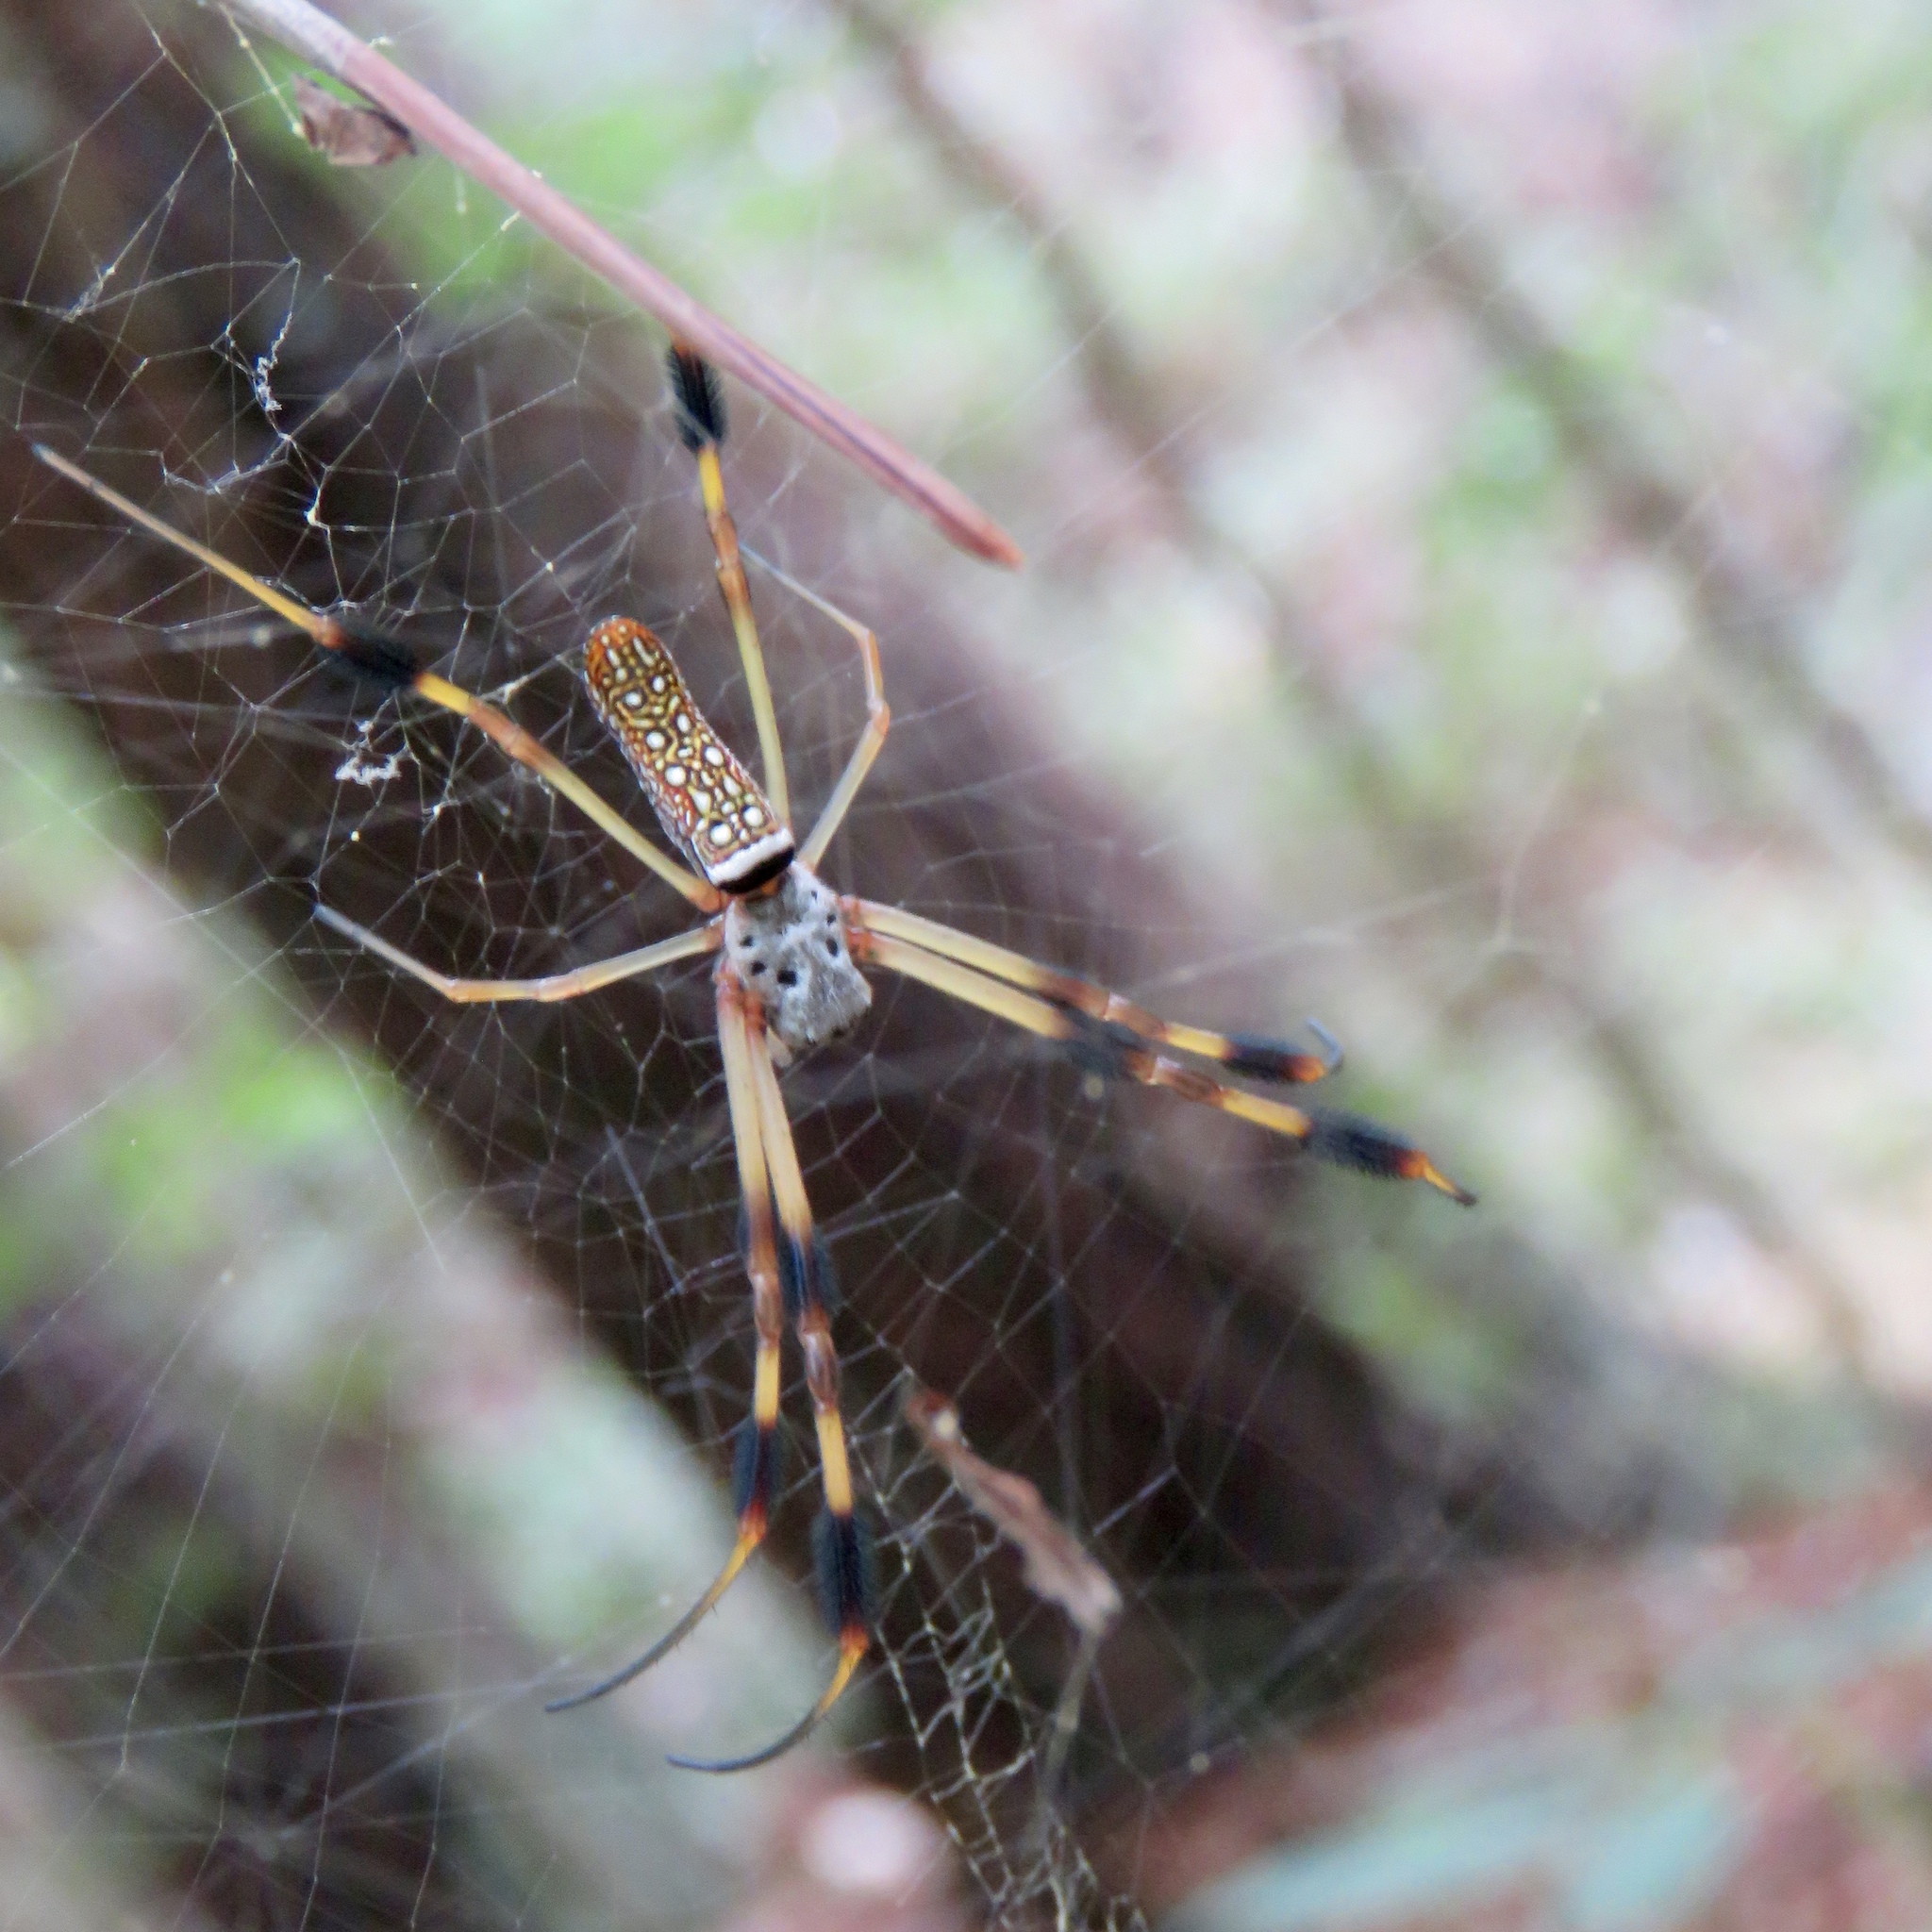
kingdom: Animalia
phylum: Arthropoda
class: Arachnida
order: Araneae
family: Araneidae
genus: Trichonephila
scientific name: Trichonephila clavipes
